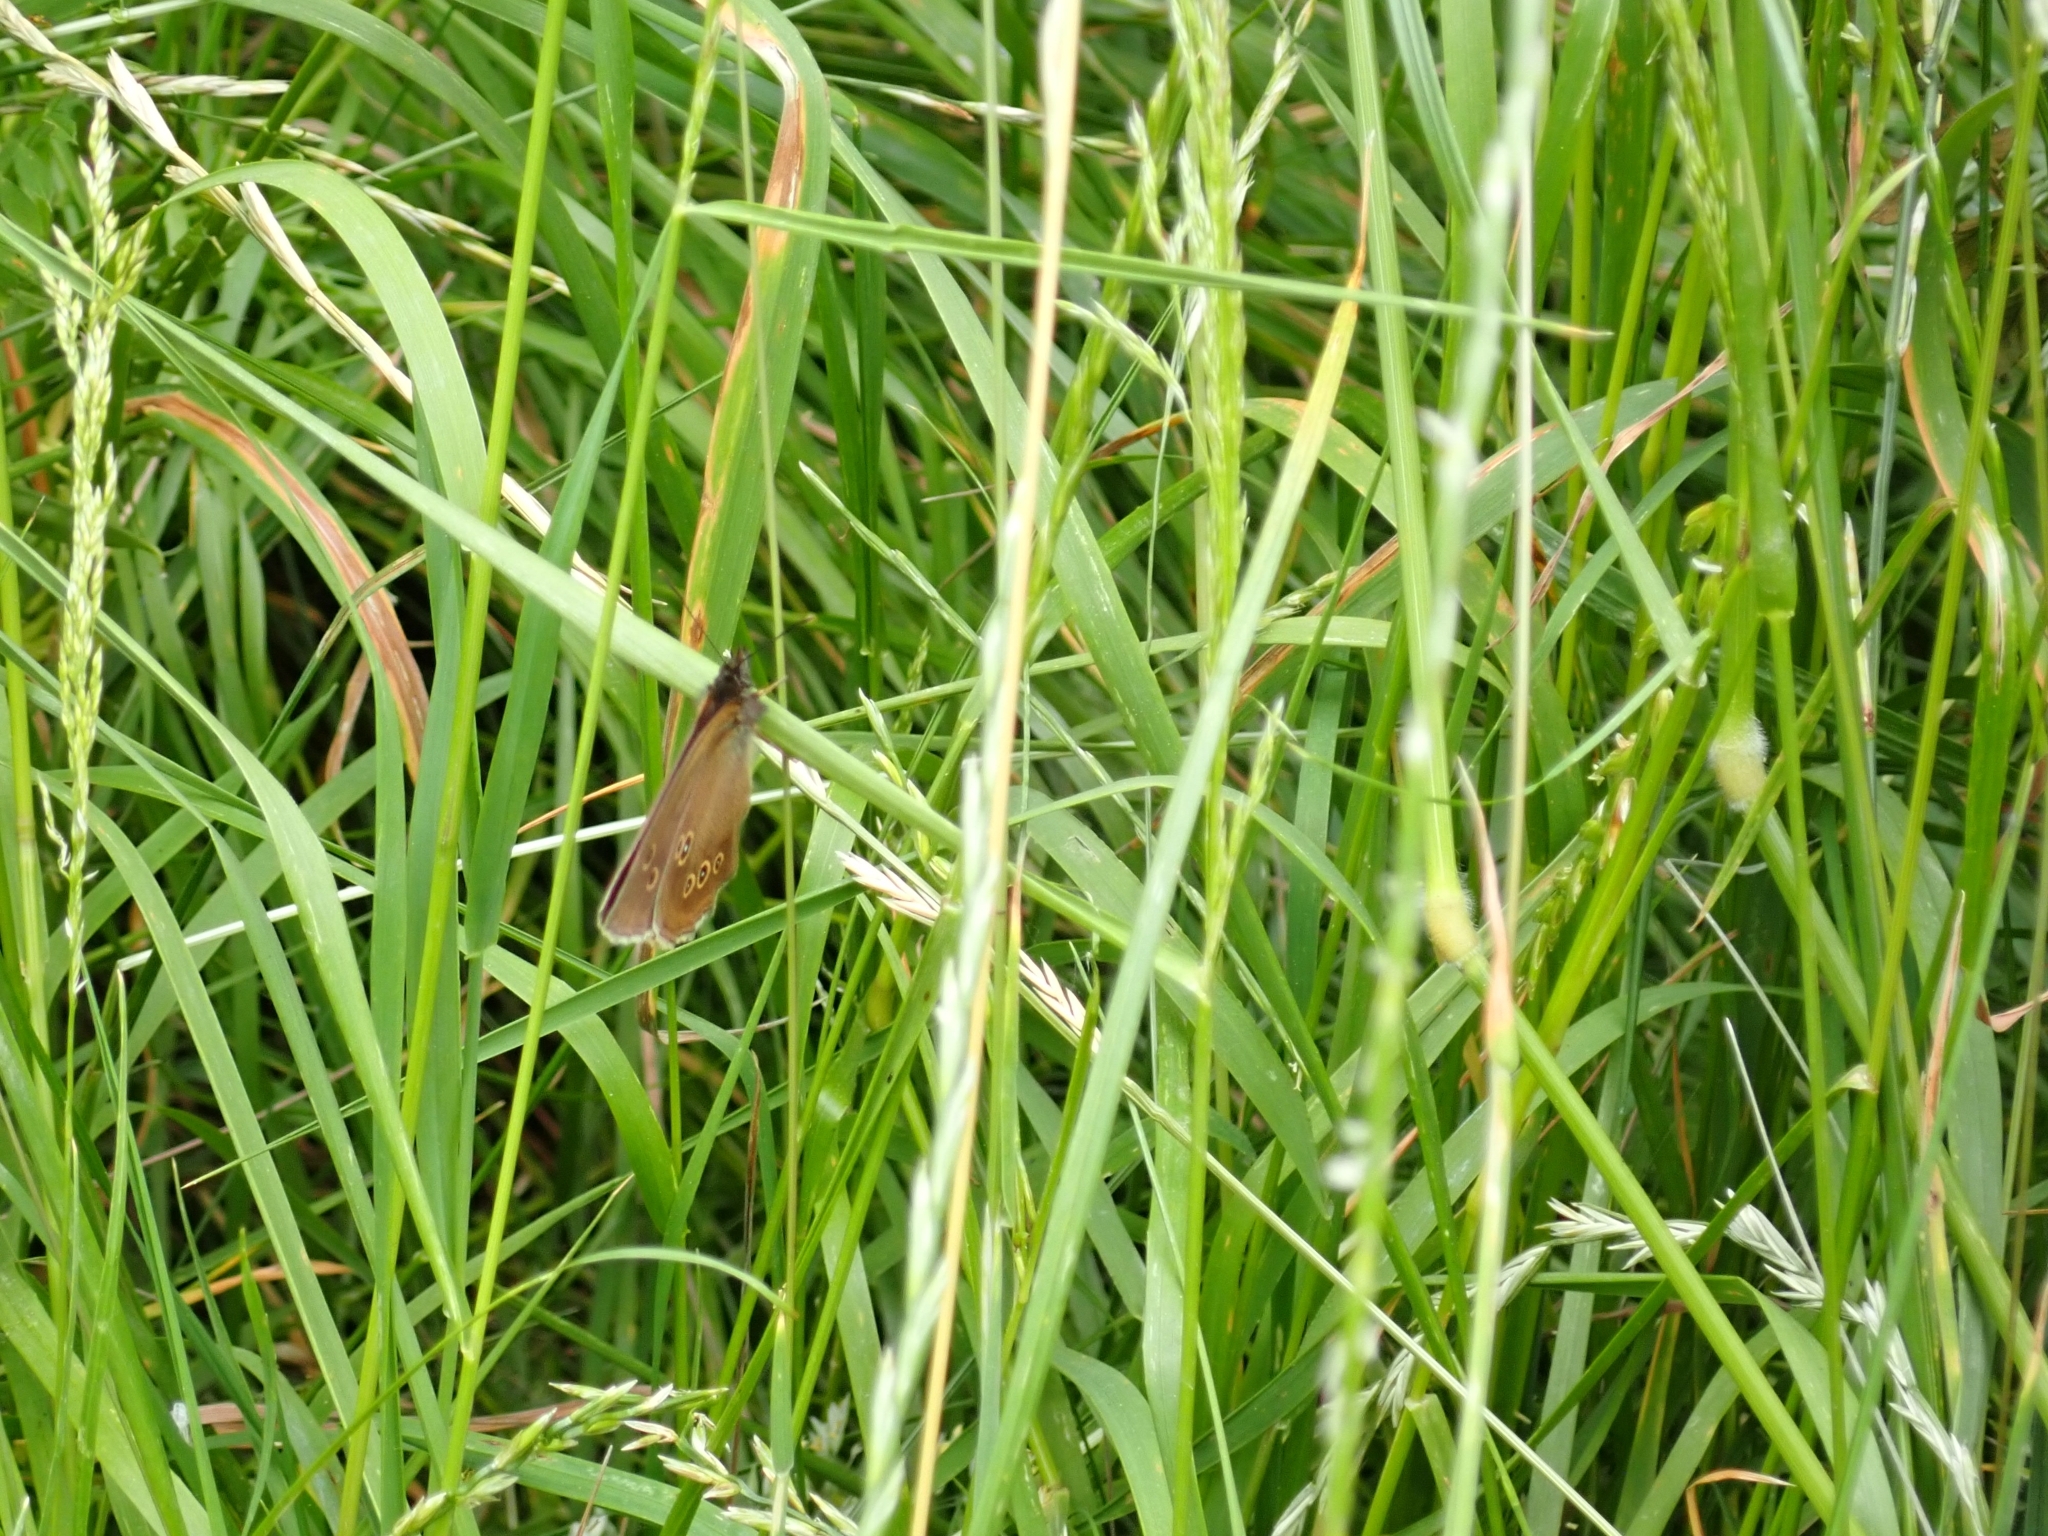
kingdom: Animalia
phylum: Arthropoda
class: Insecta
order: Lepidoptera
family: Nymphalidae
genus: Aphantopus
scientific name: Aphantopus hyperantus
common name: Ringlet
